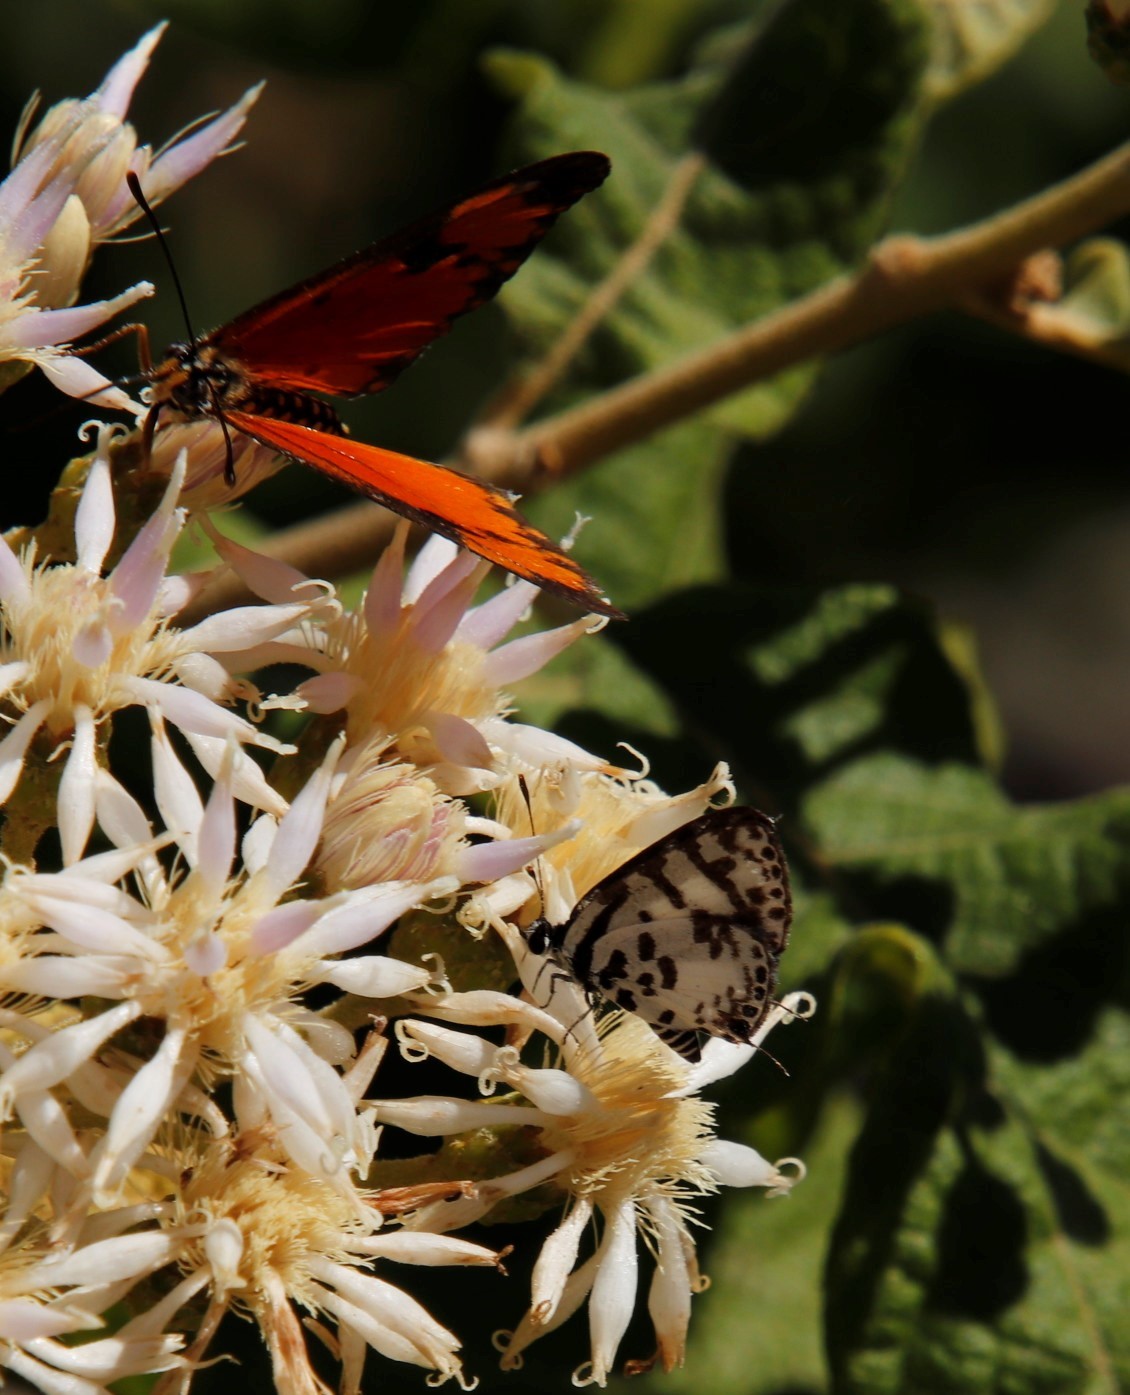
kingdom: Animalia
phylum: Arthropoda
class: Insecta
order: Lepidoptera
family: Lycaenidae
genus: Castalius
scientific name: Castalius melaena
